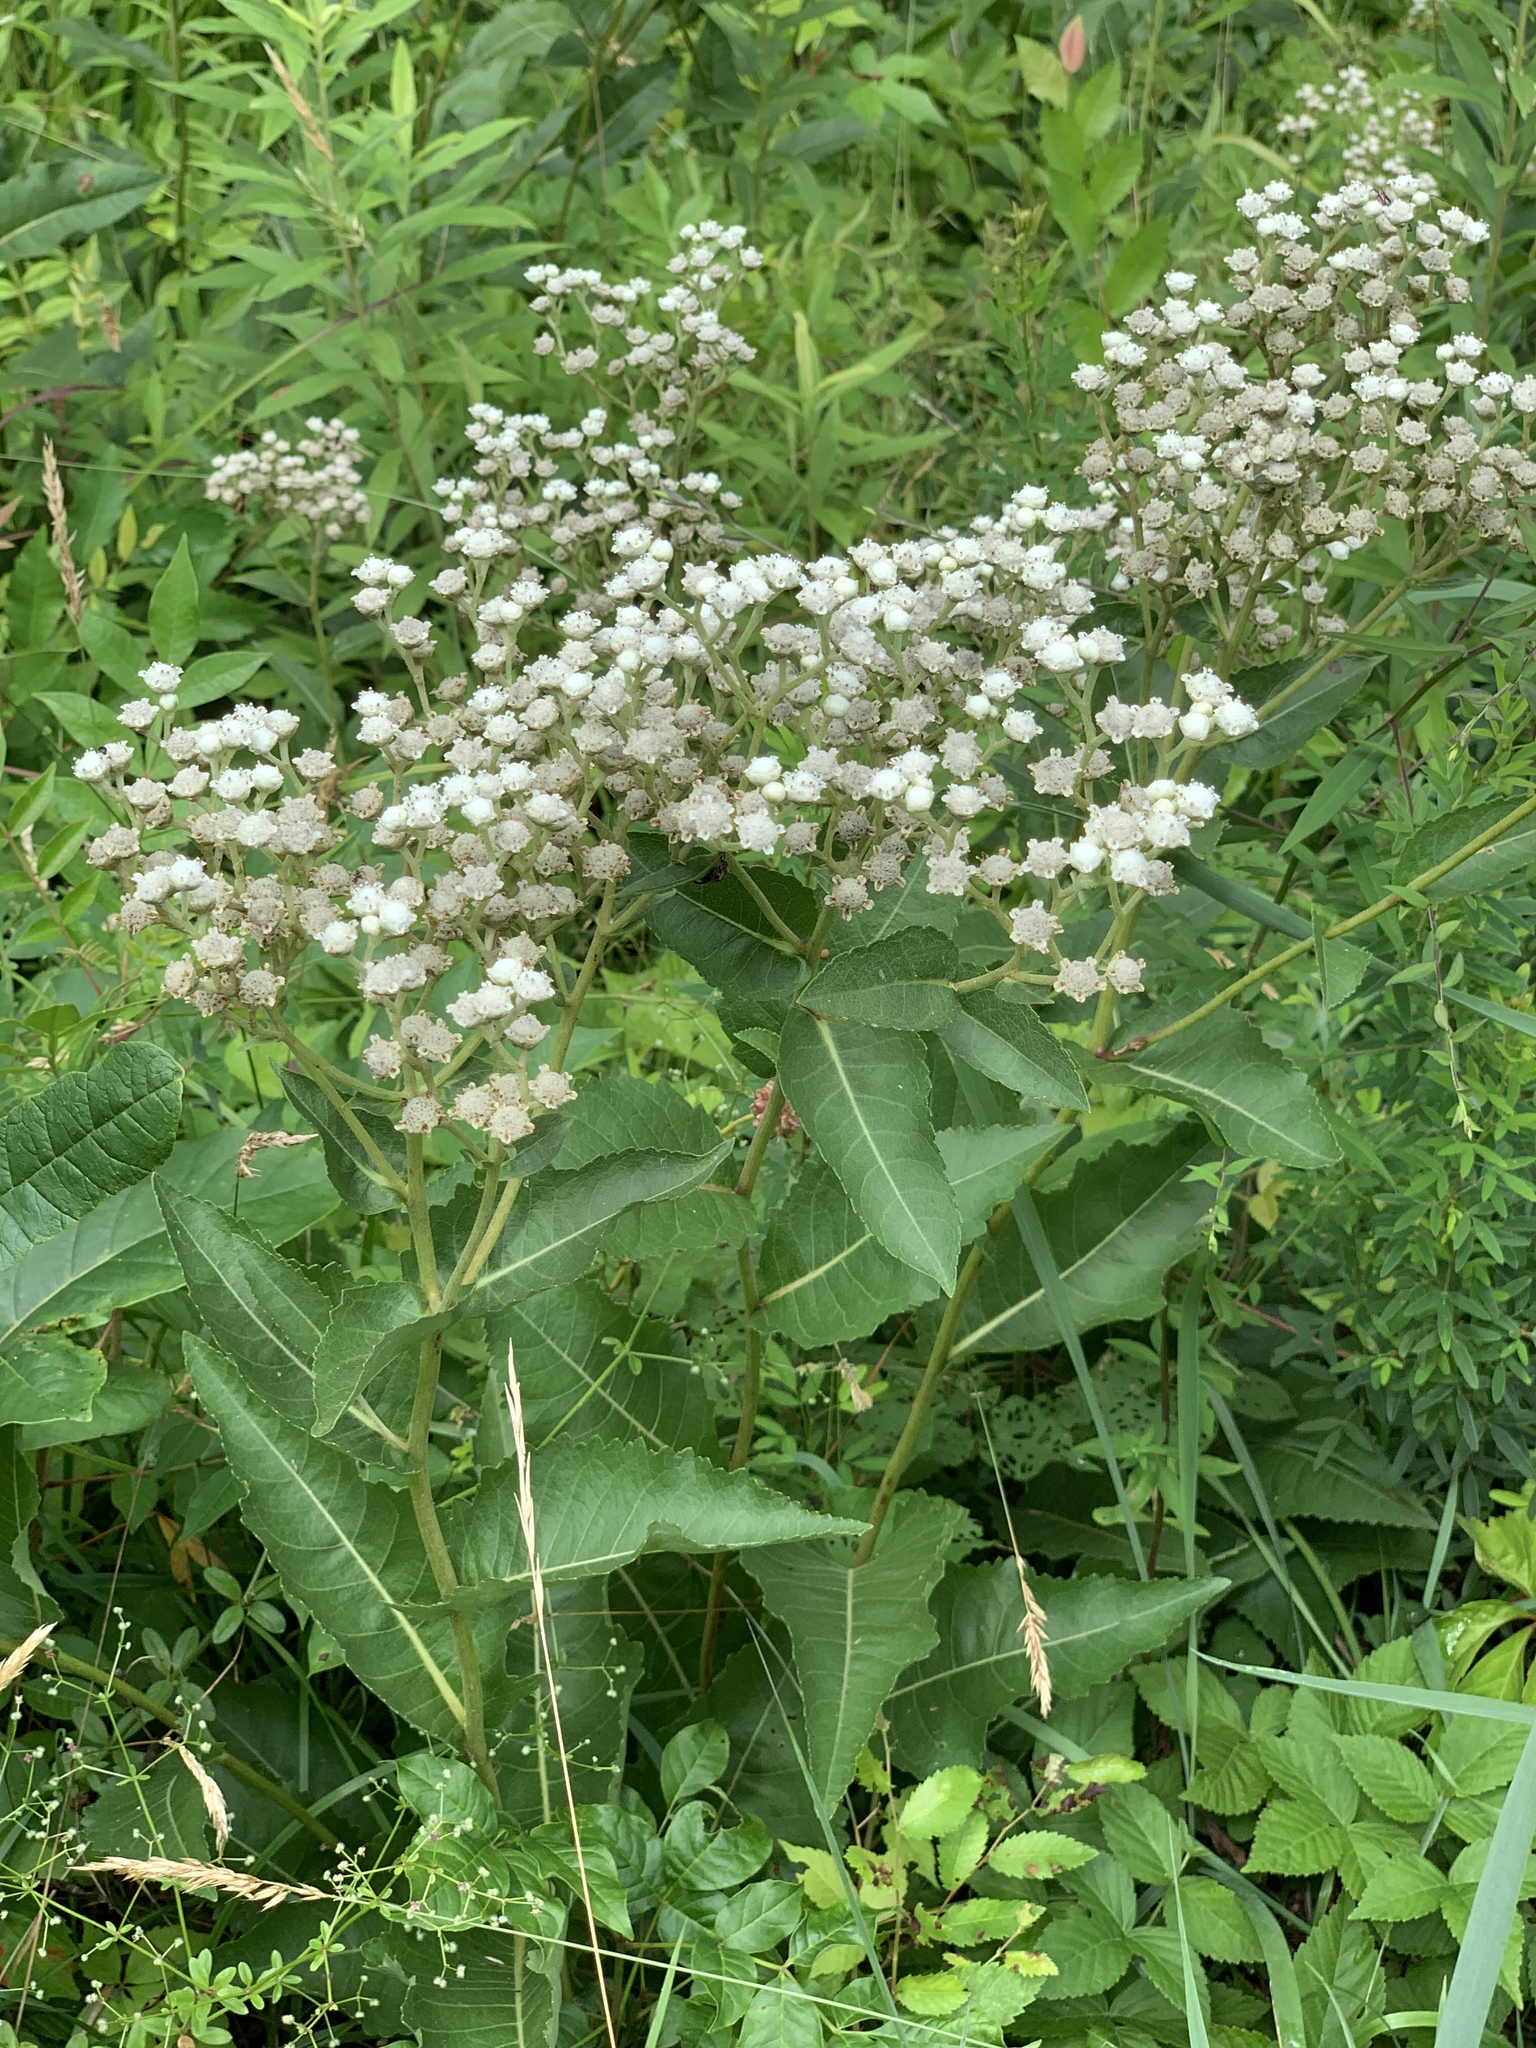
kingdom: Plantae
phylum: Tracheophyta
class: Magnoliopsida
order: Asterales
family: Asteraceae
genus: Parthenium
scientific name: Parthenium integrifolium
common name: American feverfew
